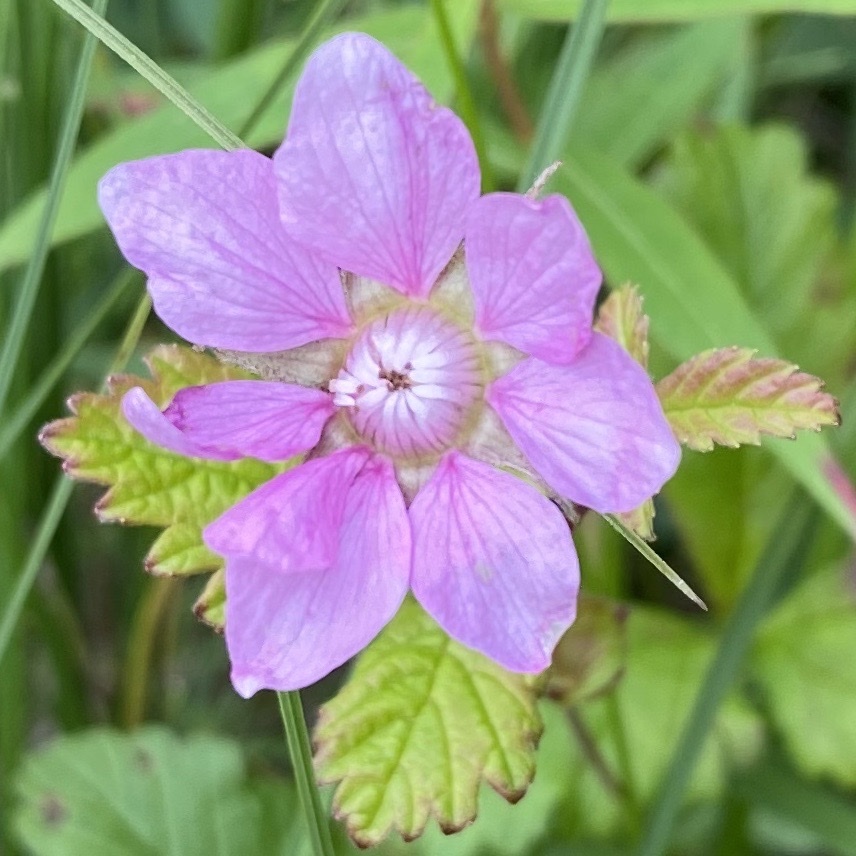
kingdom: Plantae
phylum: Tracheophyta
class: Magnoliopsida
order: Rosales
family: Rosaceae
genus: Rubus
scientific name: Rubus arcticus
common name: Arctic bramble
